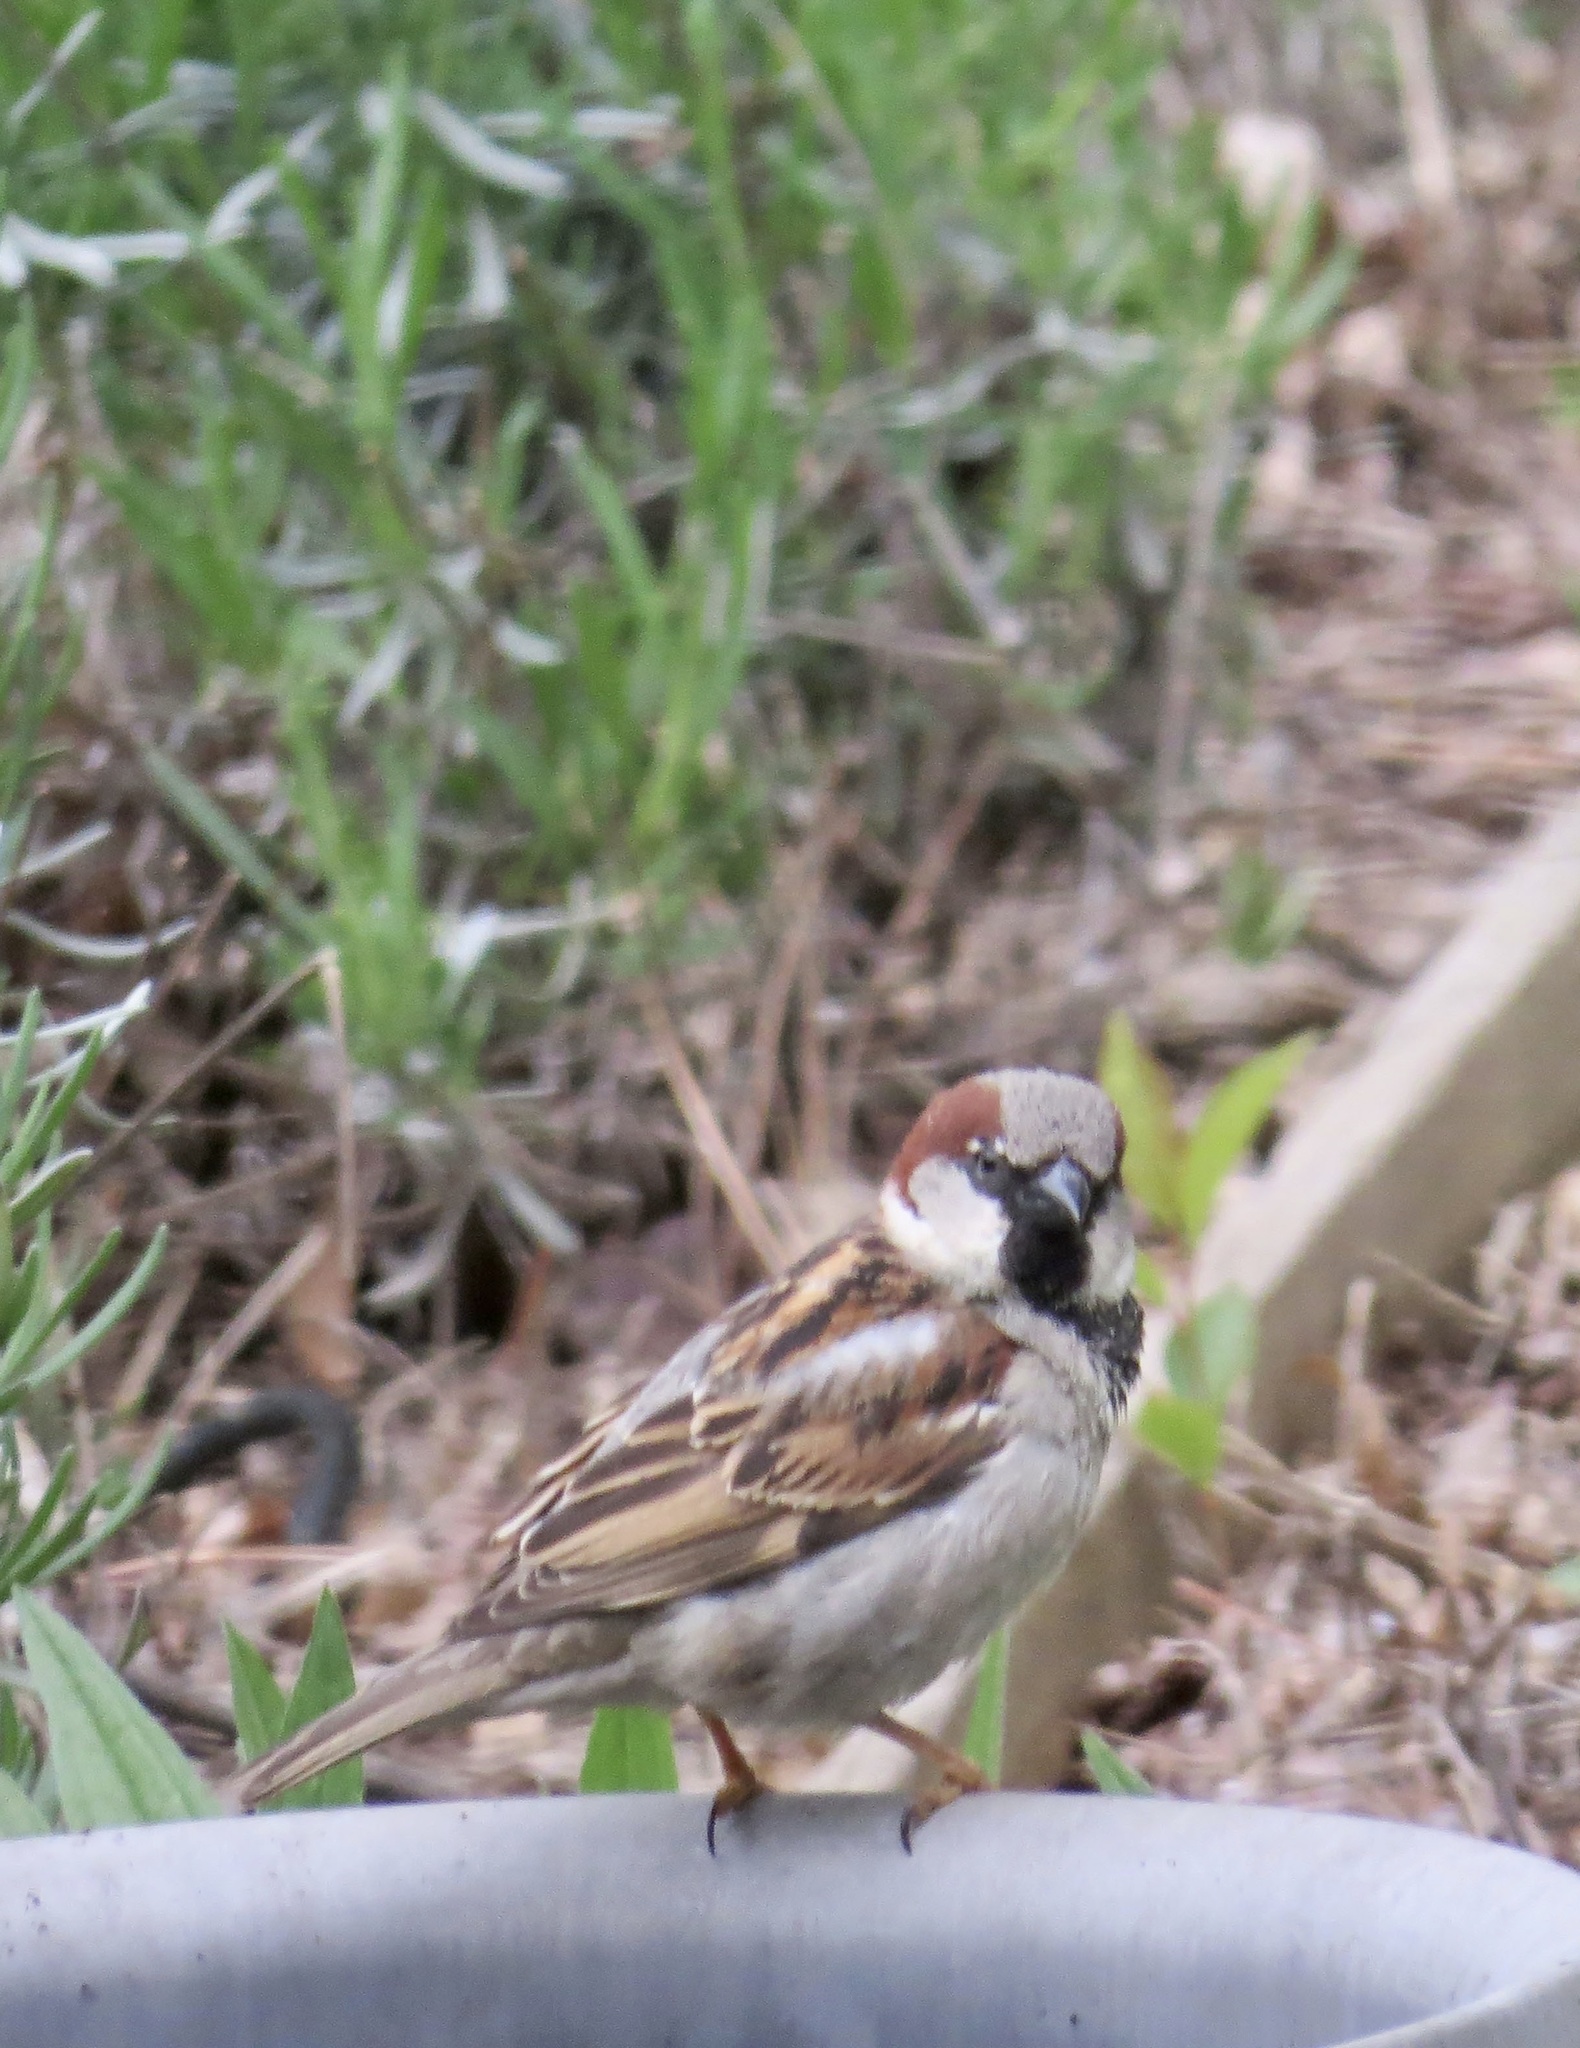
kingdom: Animalia
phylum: Chordata
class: Aves
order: Passeriformes
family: Passeridae
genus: Passer
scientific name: Passer domesticus
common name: House sparrow
